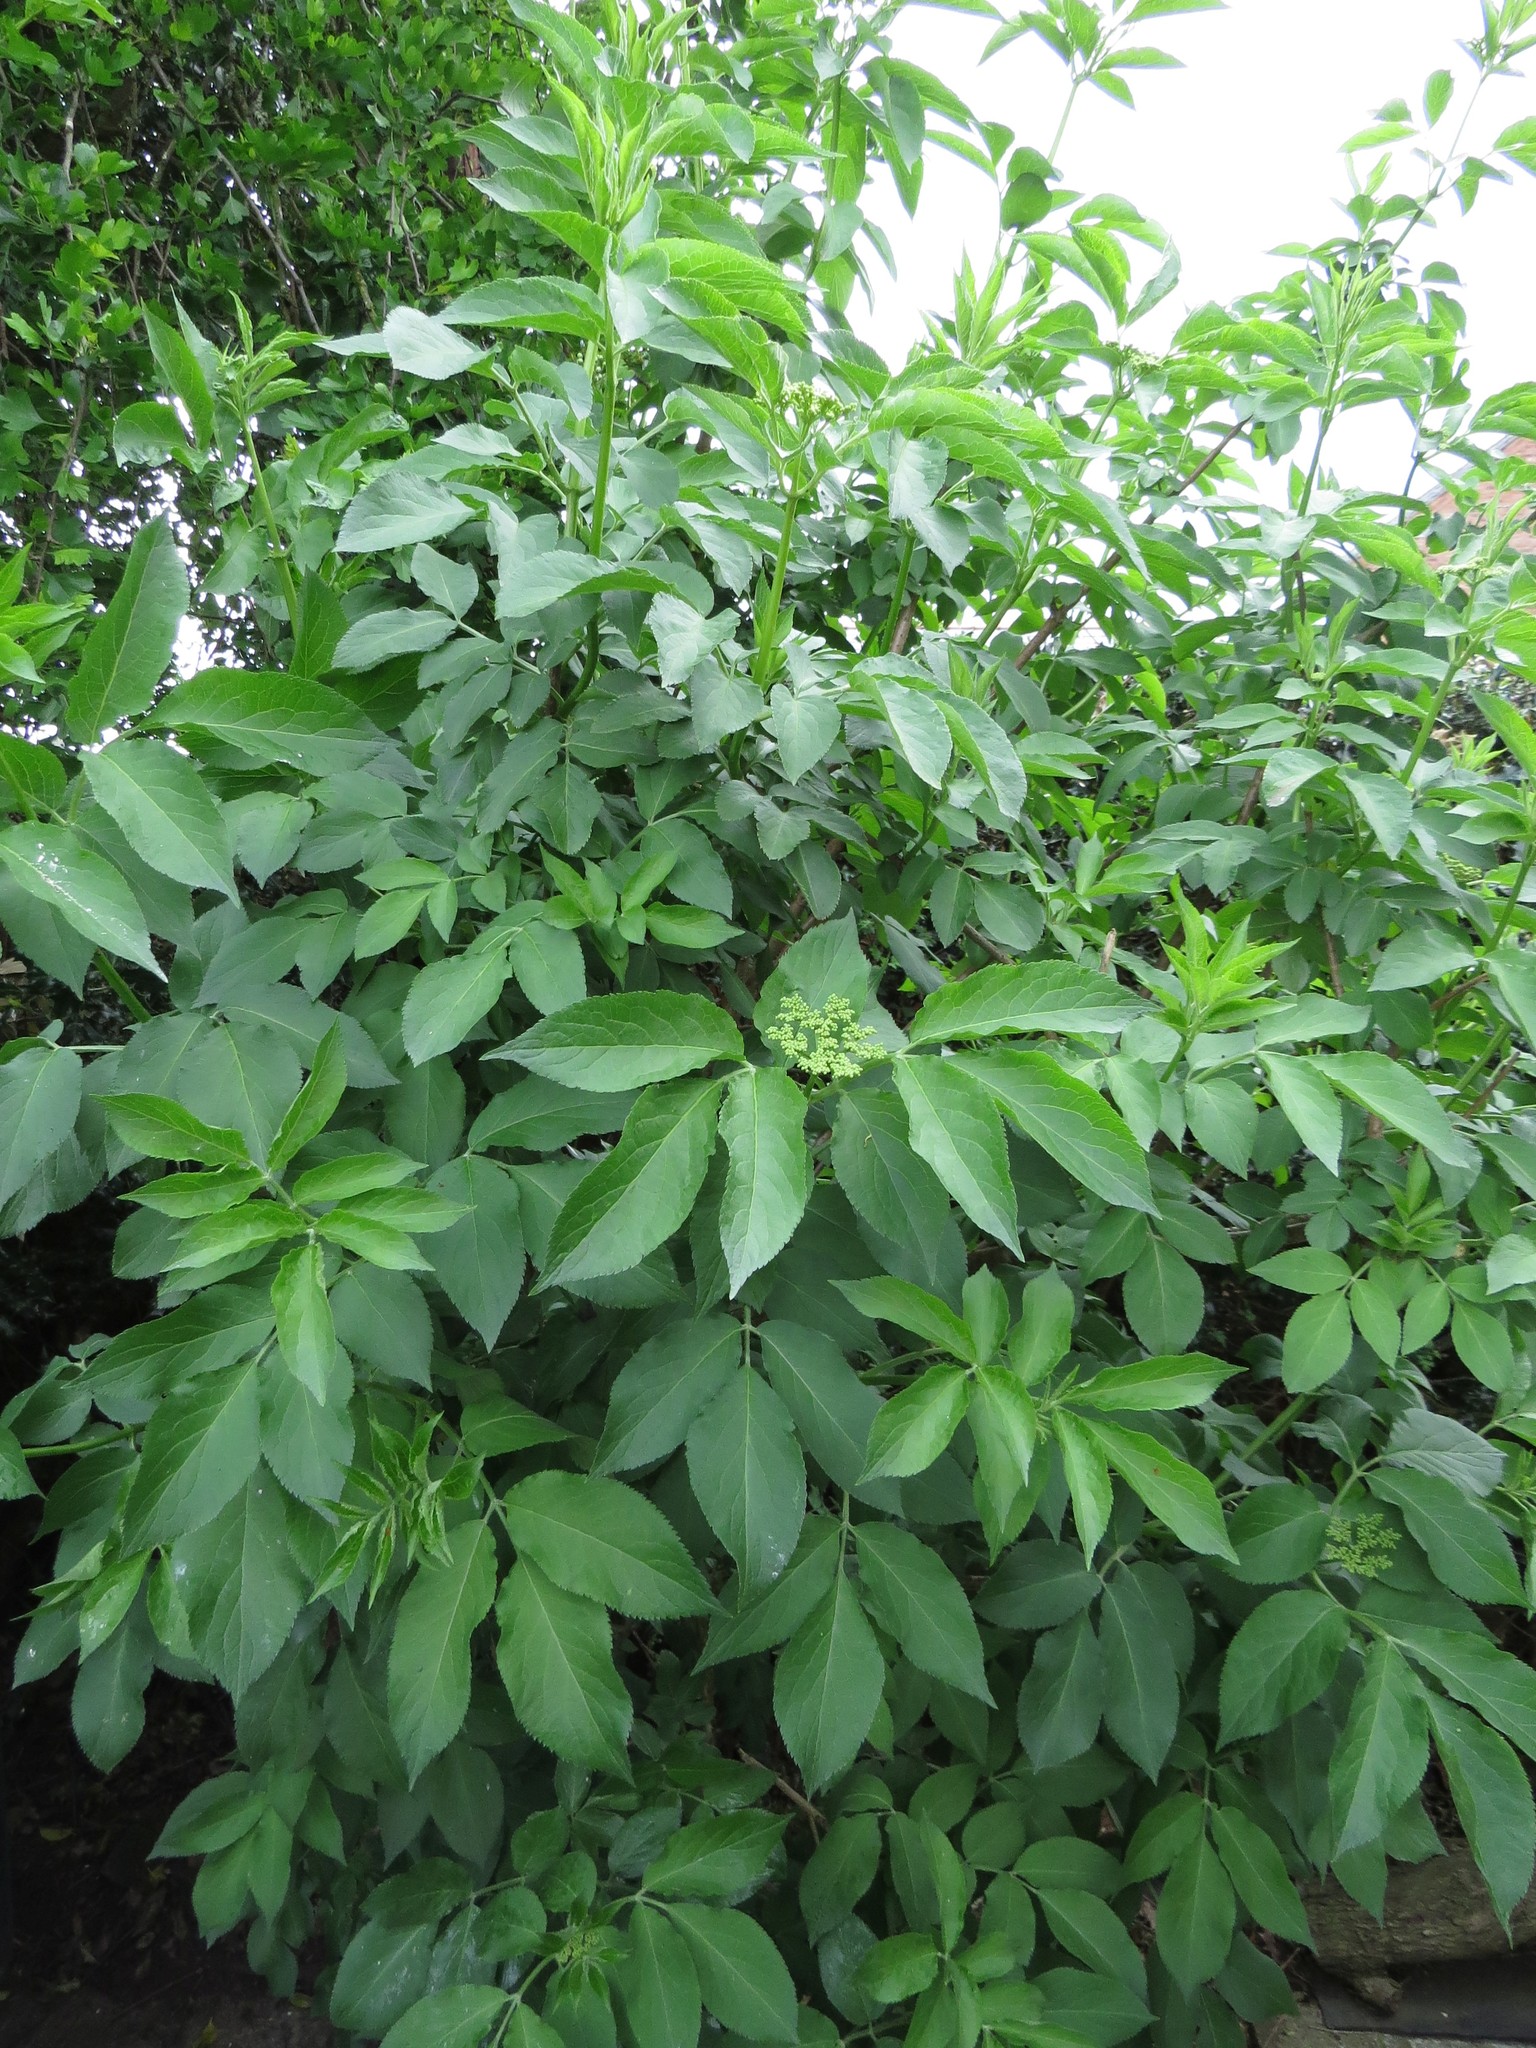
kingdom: Plantae
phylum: Tracheophyta
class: Magnoliopsida
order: Dipsacales
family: Viburnaceae
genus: Sambucus
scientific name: Sambucus nigra
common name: Elder
